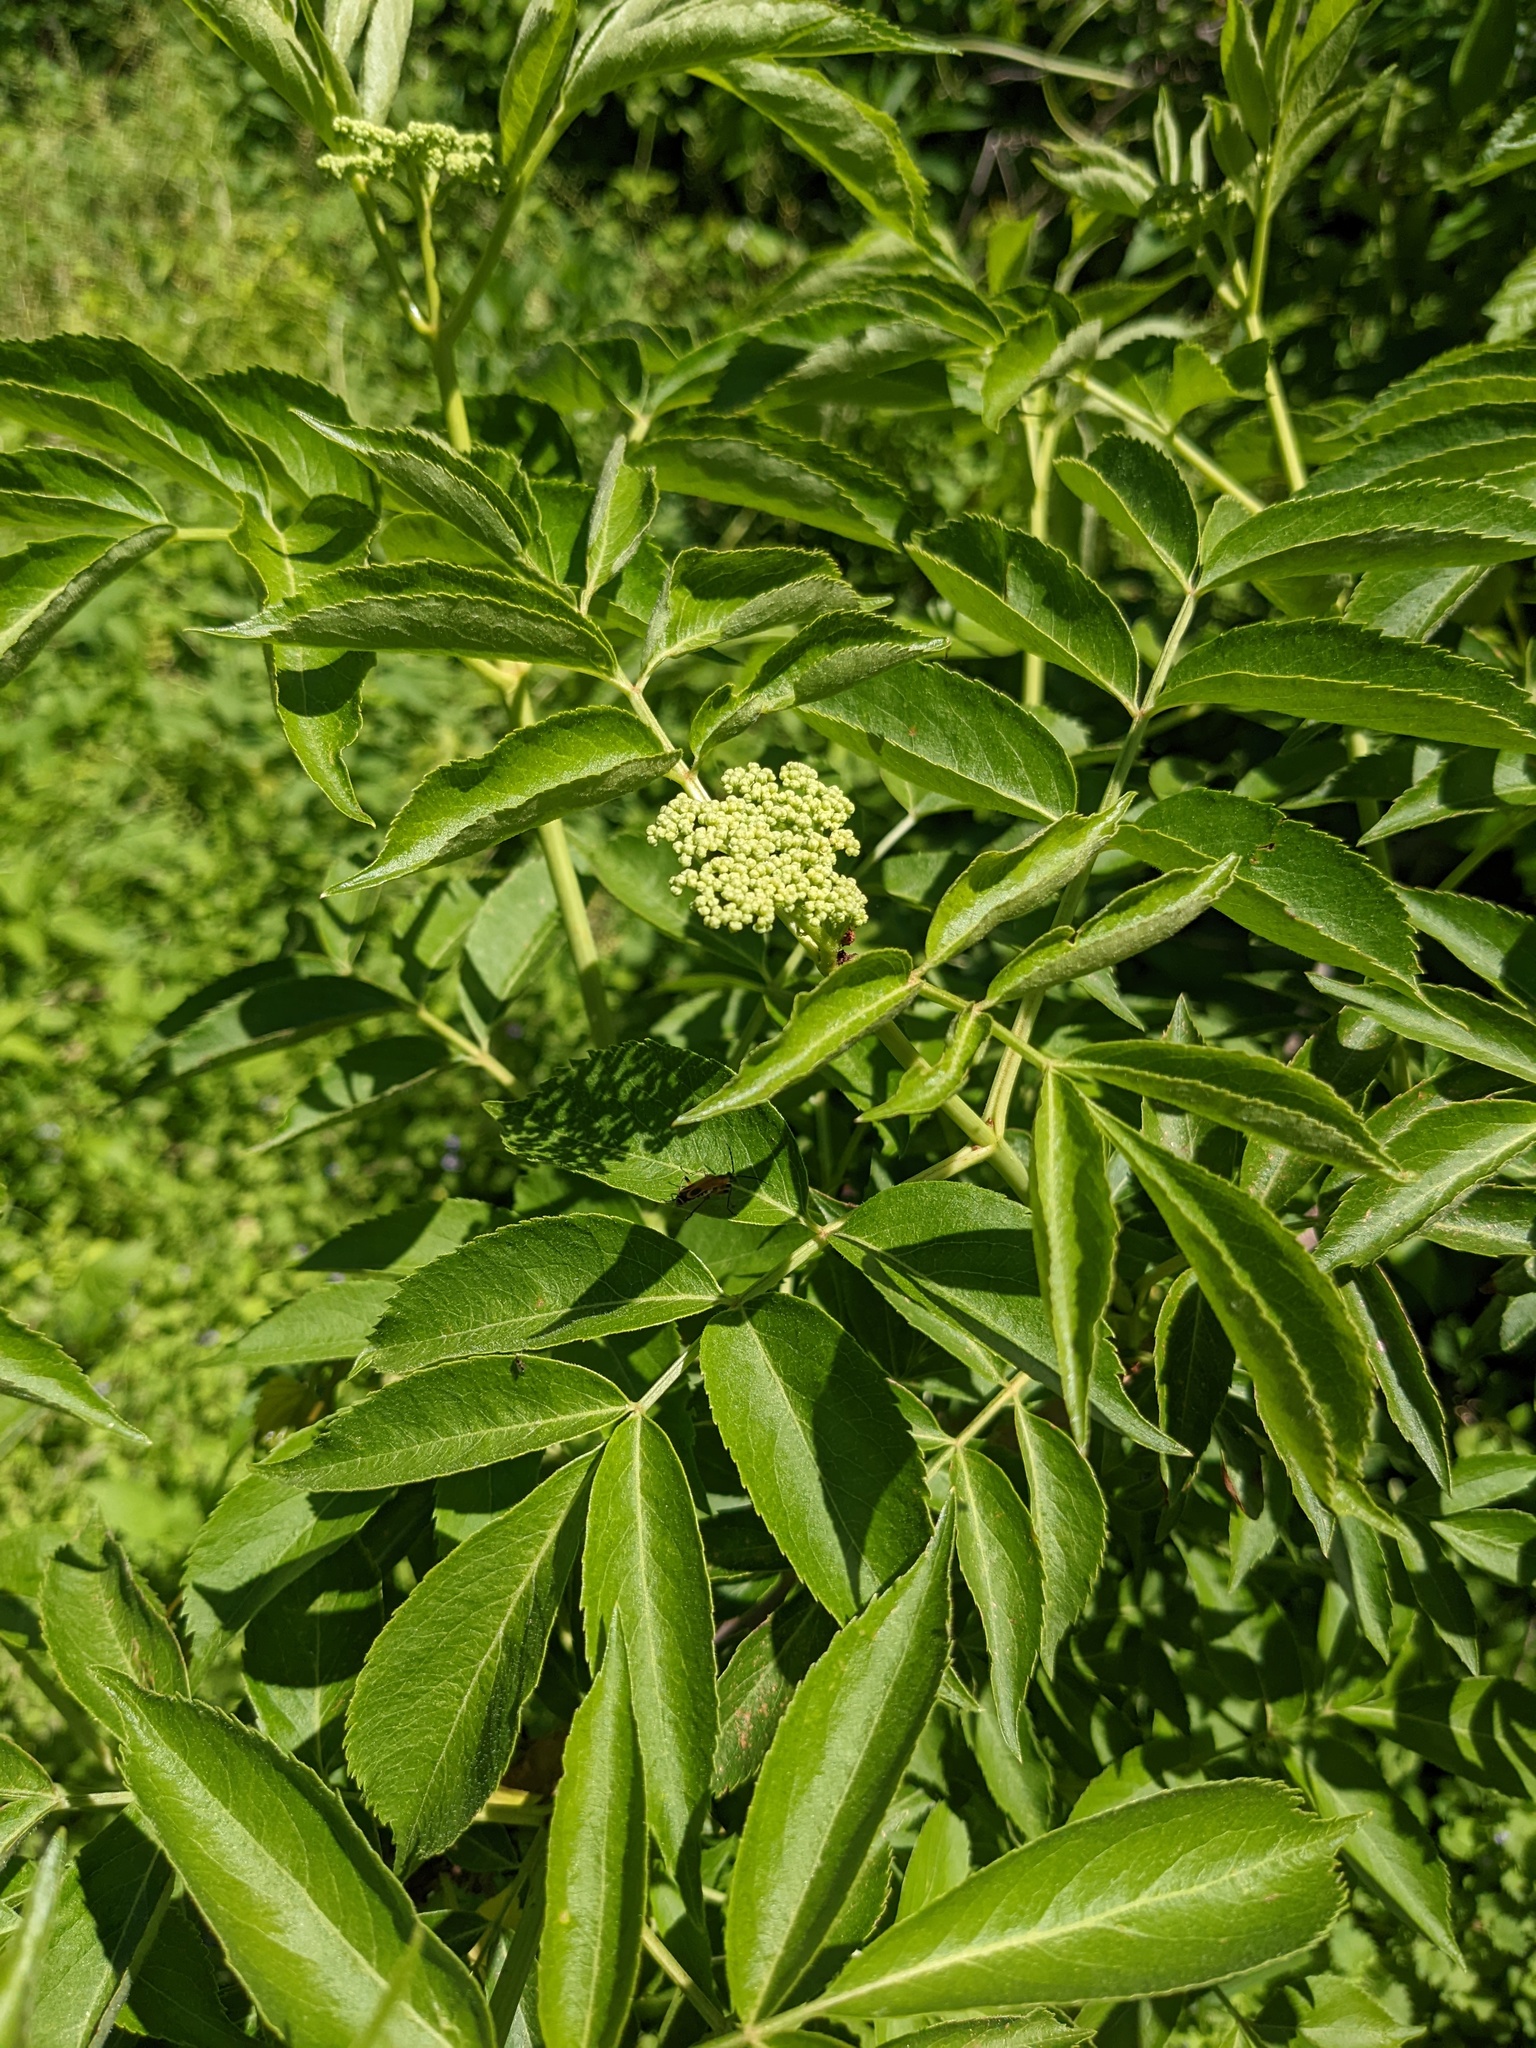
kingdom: Plantae
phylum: Tracheophyta
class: Magnoliopsida
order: Dipsacales
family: Viburnaceae
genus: Sambucus
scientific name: Sambucus canadensis
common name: American elder
